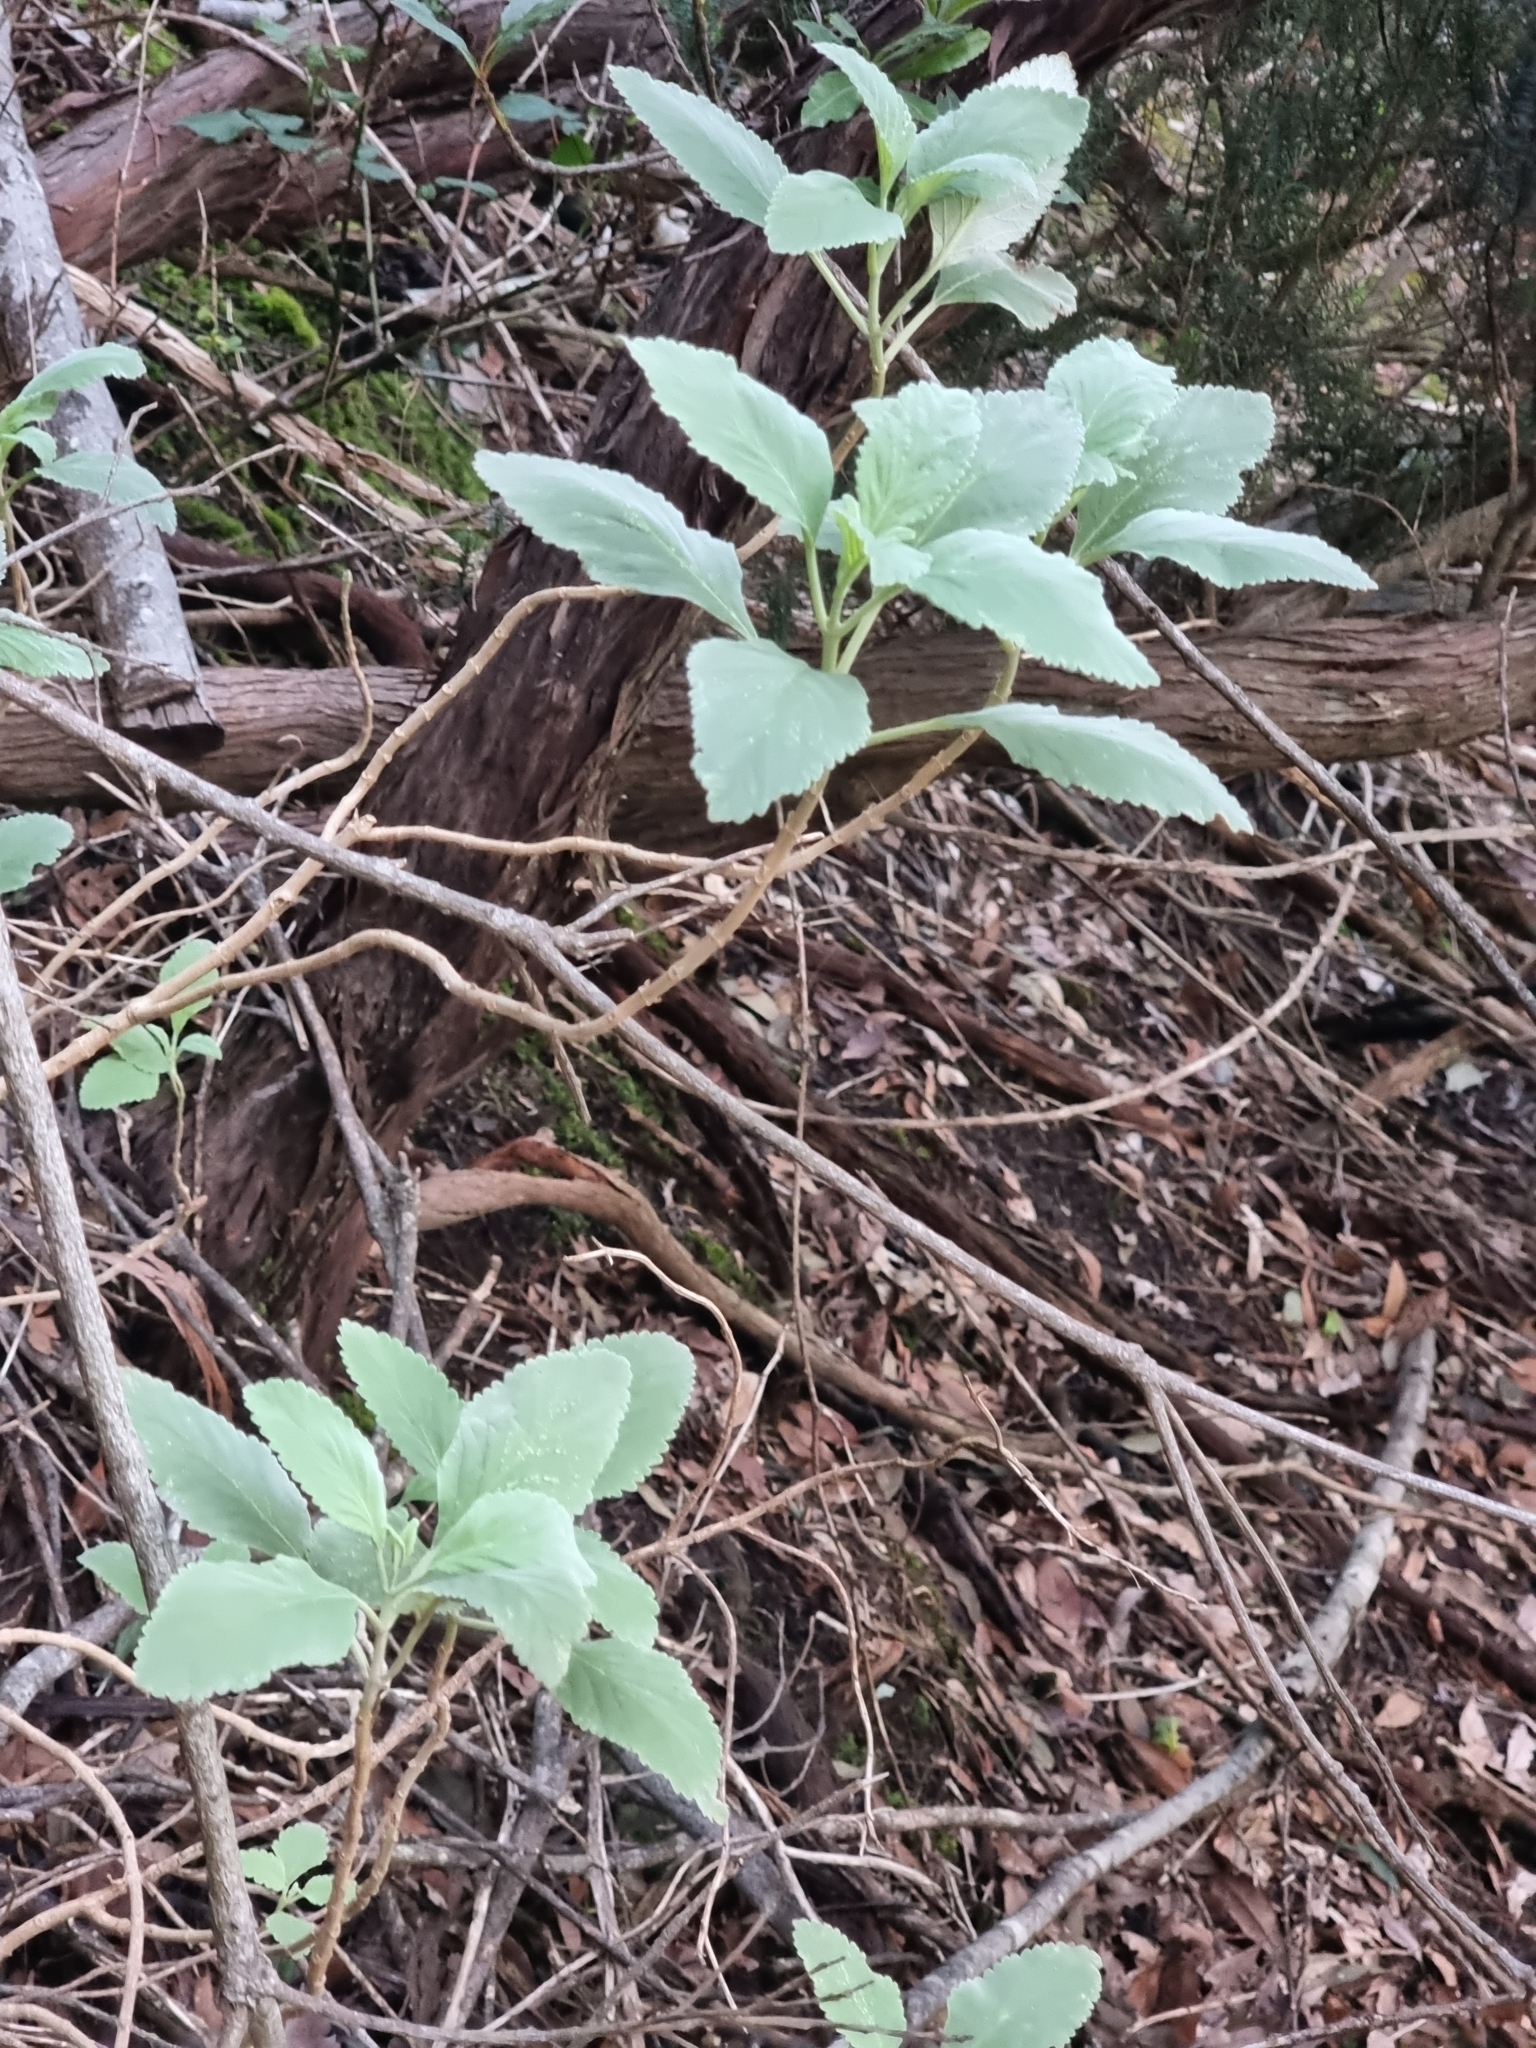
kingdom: Plantae
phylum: Tracheophyta
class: Magnoliopsida
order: Lamiales
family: Lamiaceae
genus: Teucrium
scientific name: Teucrium betonicum
